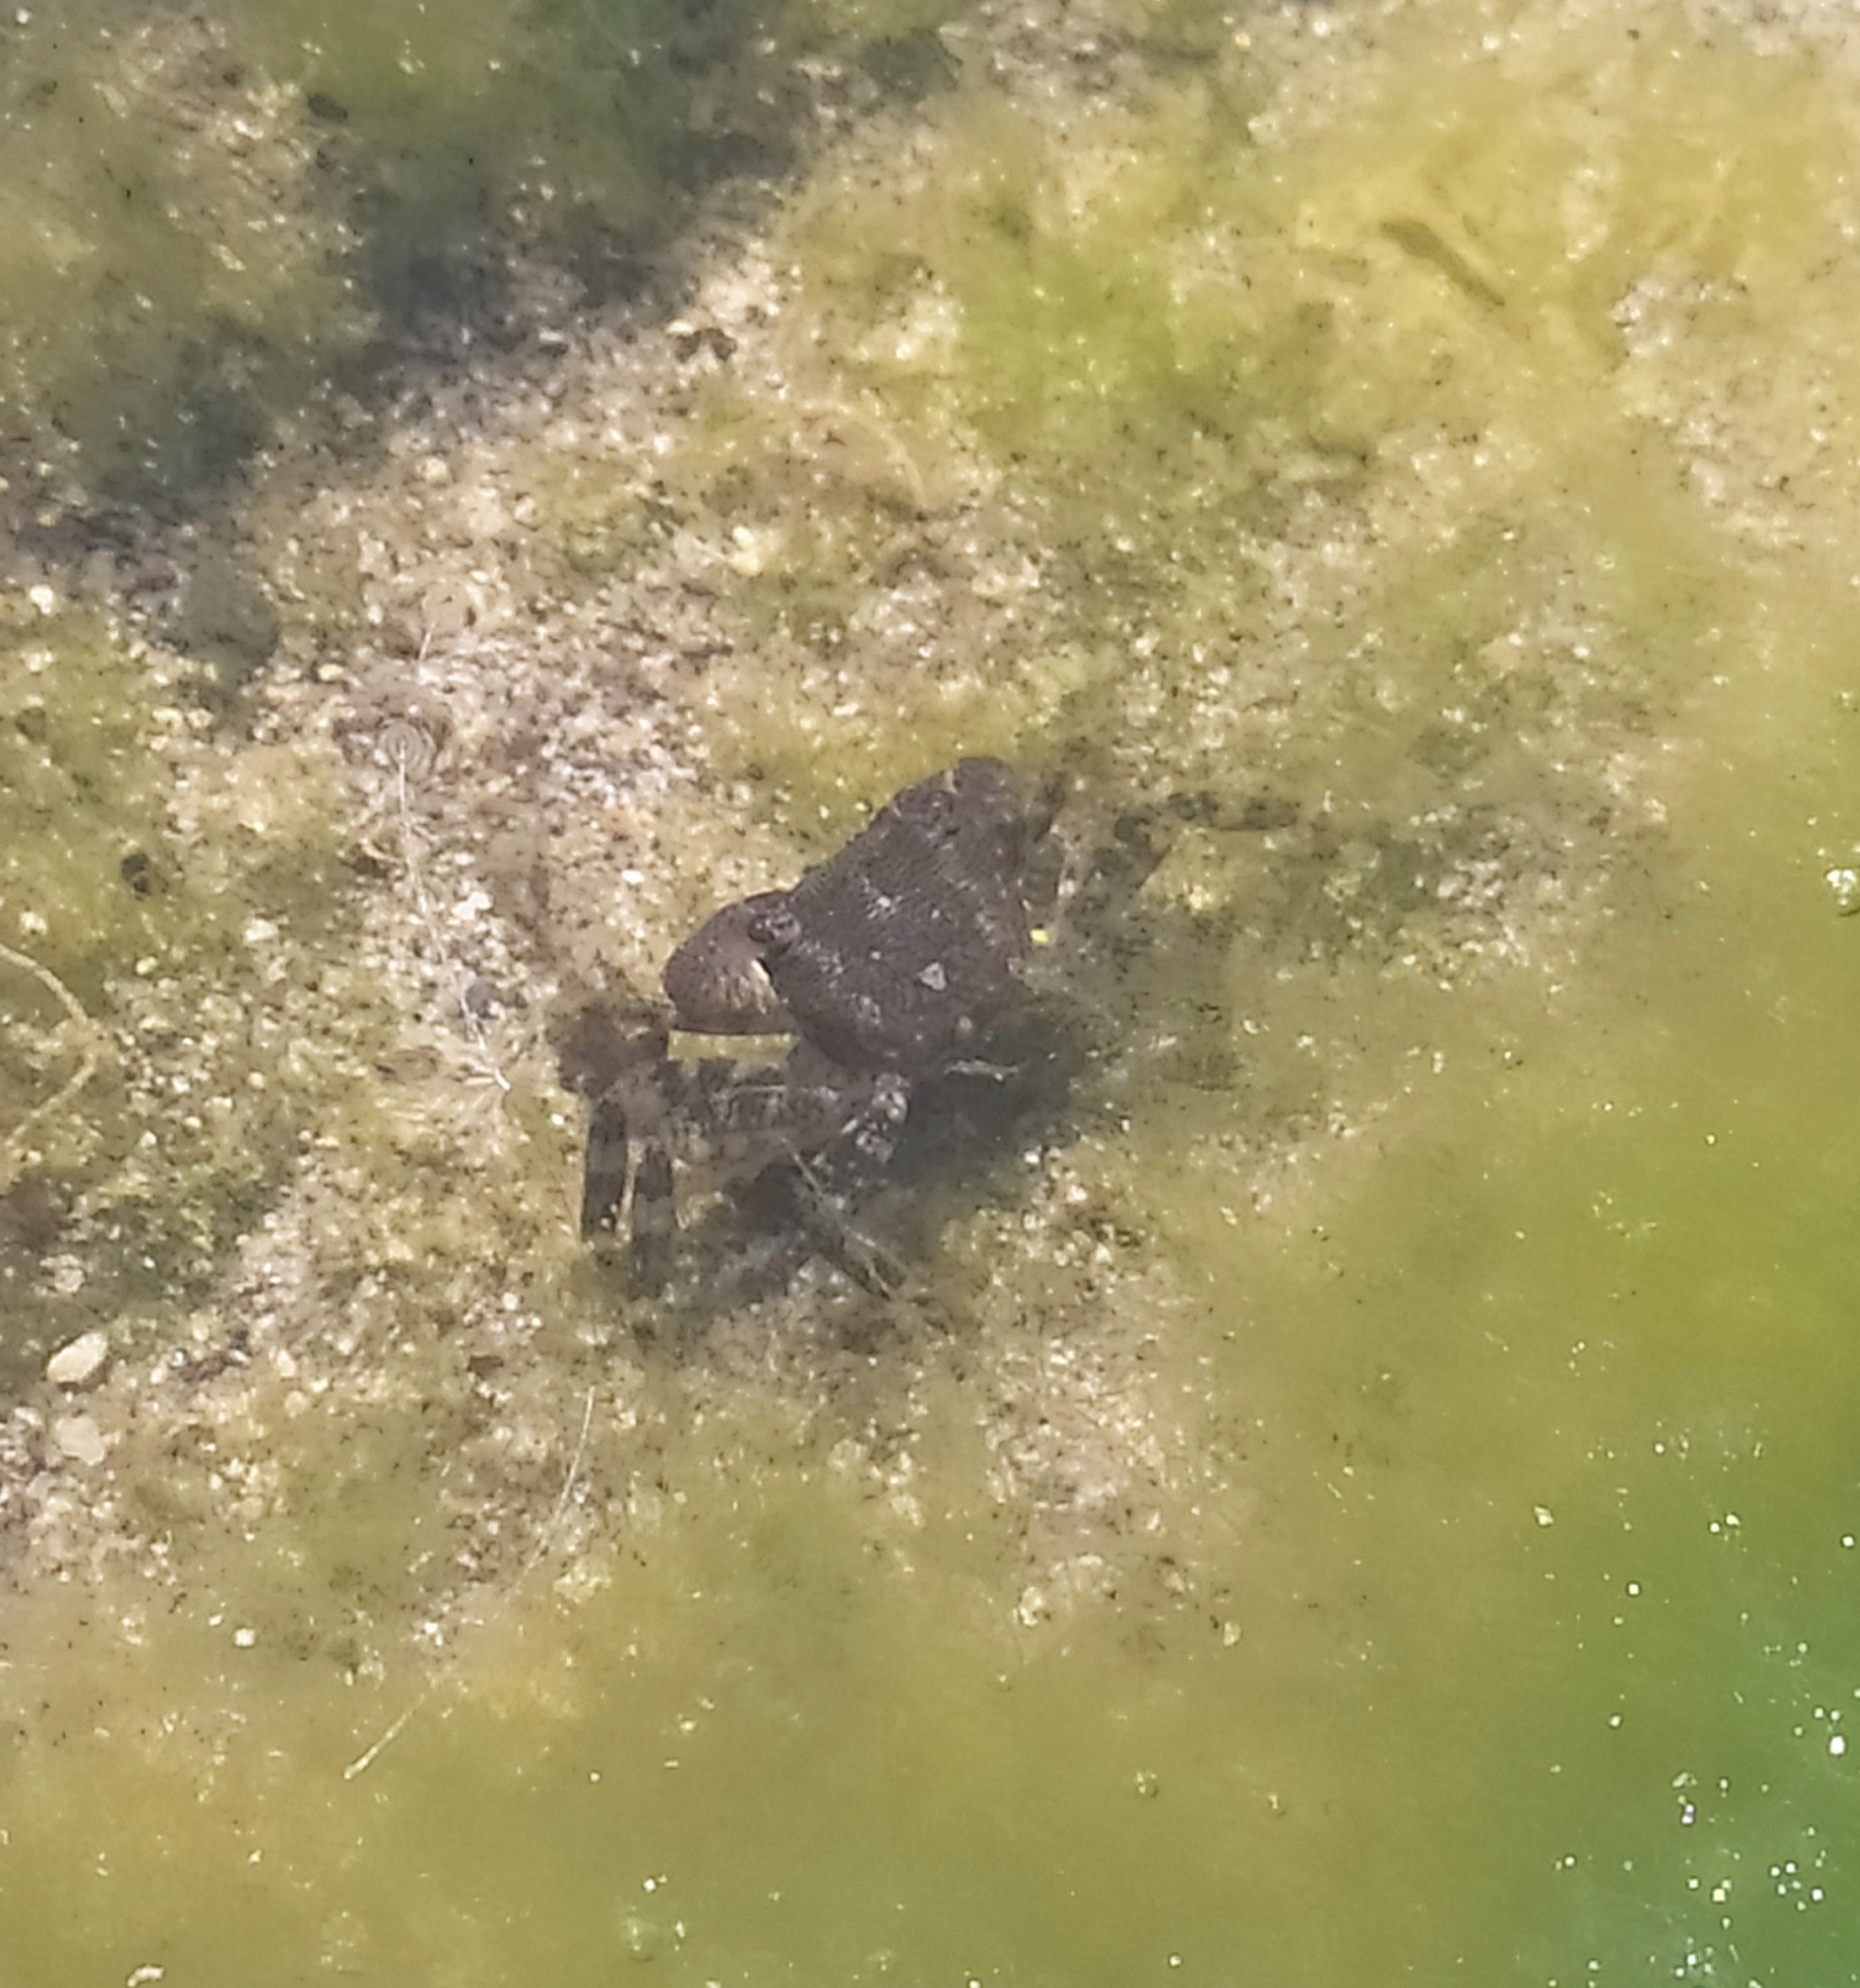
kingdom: Animalia
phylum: Arthropoda
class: Malacostraca
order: Decapoda
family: Grapsidae
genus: Pachygrapsus
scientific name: Pachygrapsus marmoratus
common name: Marbled rock crab
